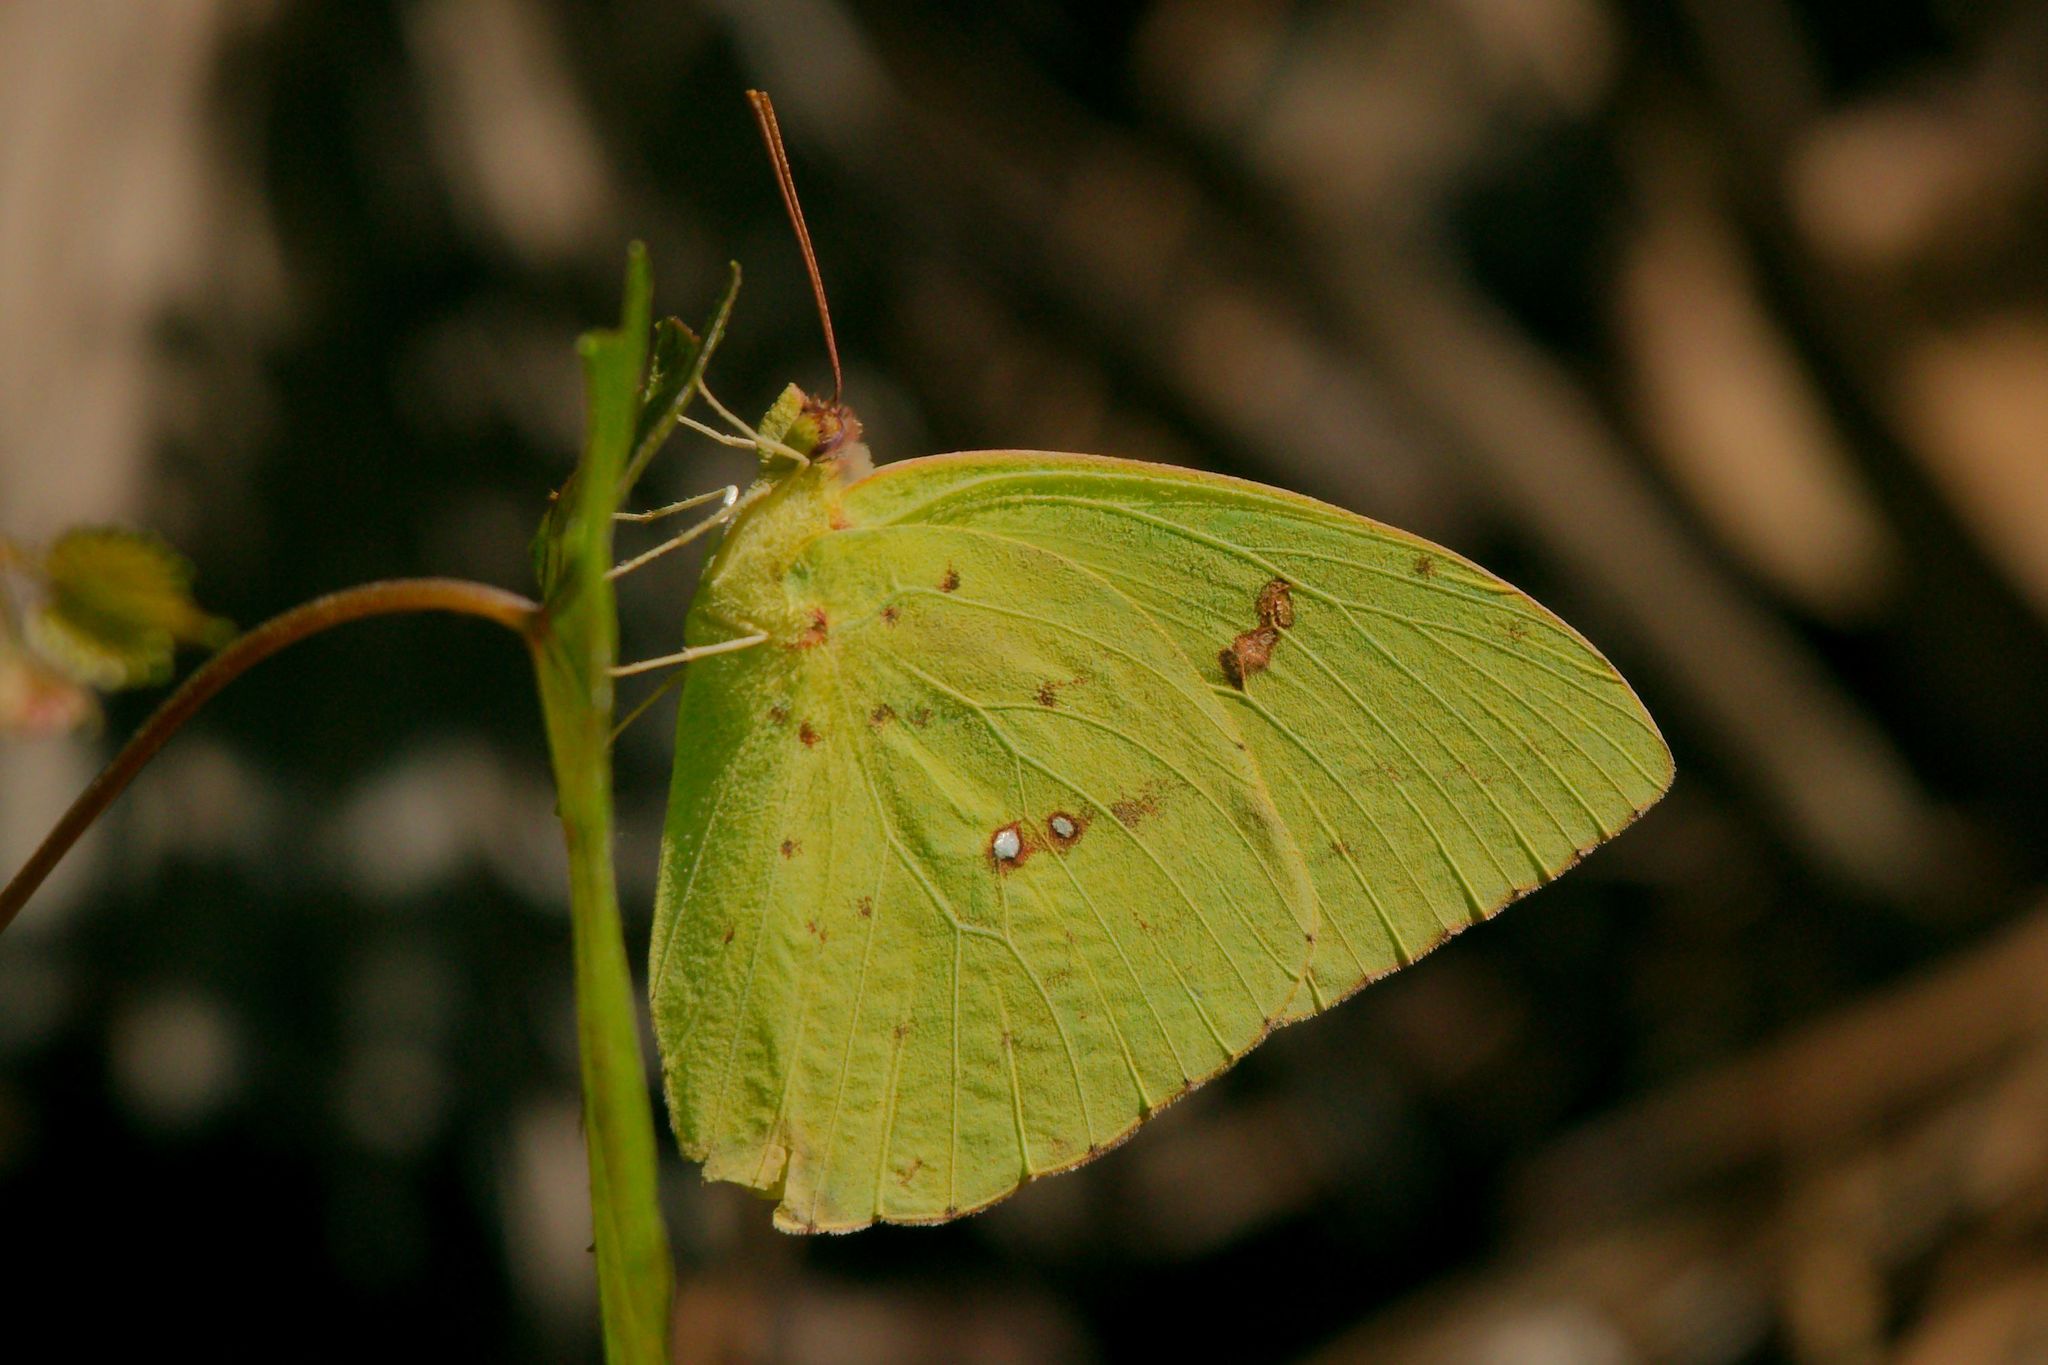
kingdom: Animalia
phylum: Arthropoda
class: Insecta
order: Lepidoptera
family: Pieridae
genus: Phoebis
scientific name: Phoebis sennae
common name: Cloudless sulphur
